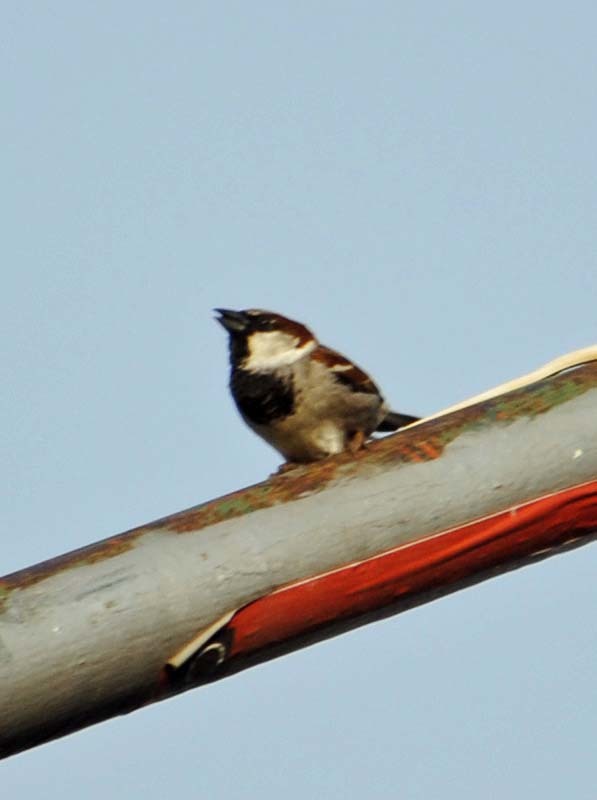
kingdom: Animalia
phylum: Chordata
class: Aves
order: Passeriformes
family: Passeridae
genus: Passer
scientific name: Passer domesticus
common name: House sparrow
